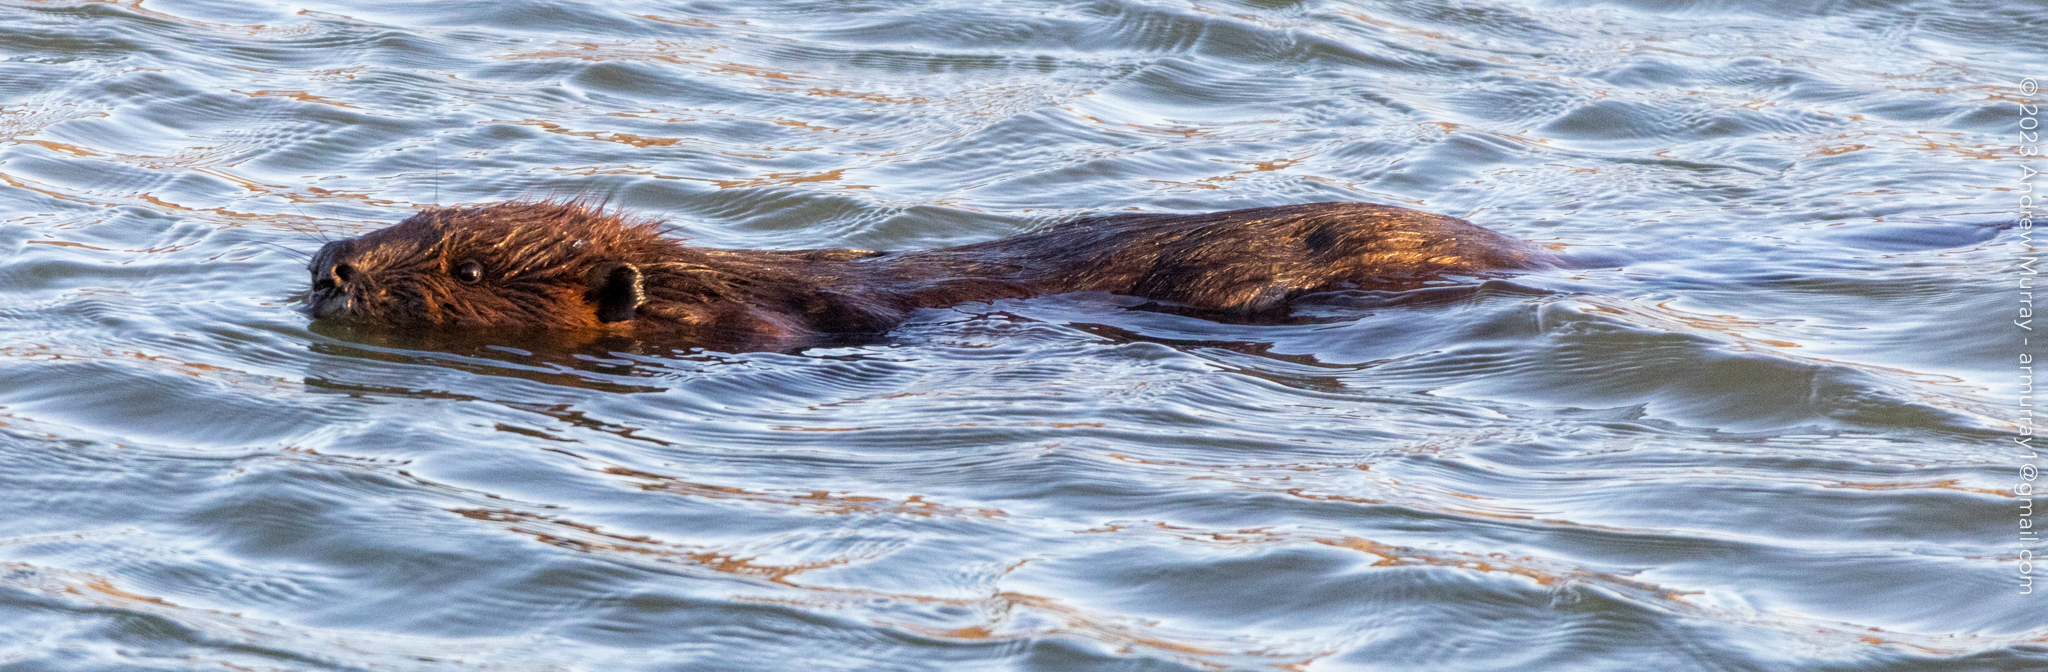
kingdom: Animalia
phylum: Chordata
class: Mammalia
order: Rodentia
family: Castoridae
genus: Castor
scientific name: Castor canadensis
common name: American beaver
